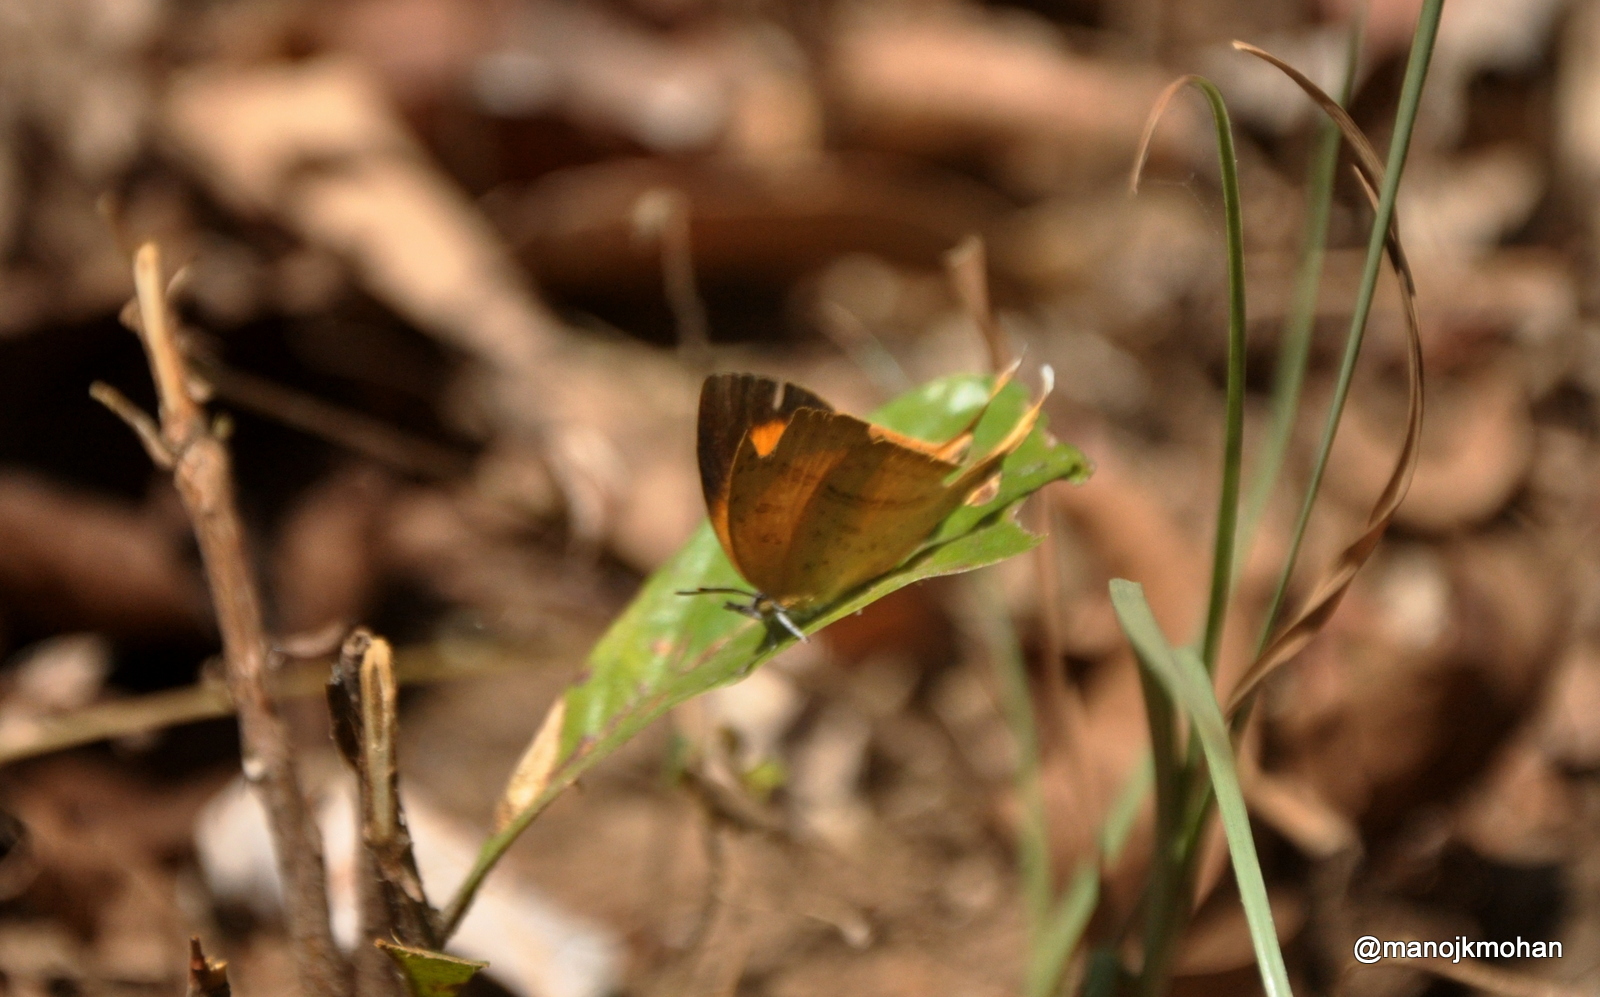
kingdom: Animalia
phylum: Arthropoda
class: Insecta
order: Lepidoptera
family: Lycaenidae
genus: Loxura
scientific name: Loxura atymnus
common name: Common yamfly
